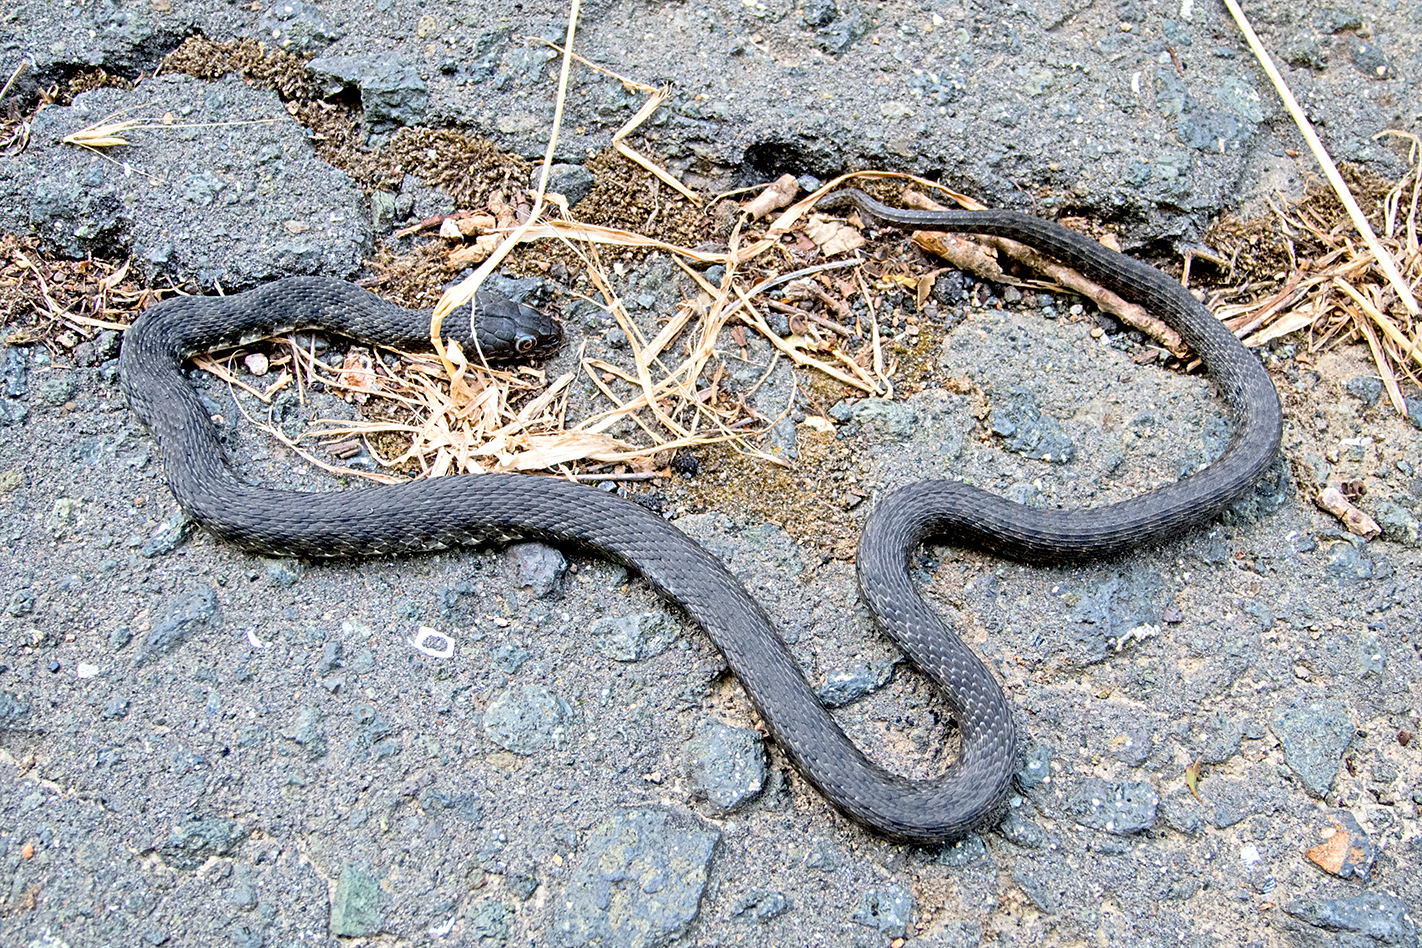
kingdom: Animalia
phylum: Chordata
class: Squamata
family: Colubridae
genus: Natrix
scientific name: Natrix tessellata
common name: Dice snake
